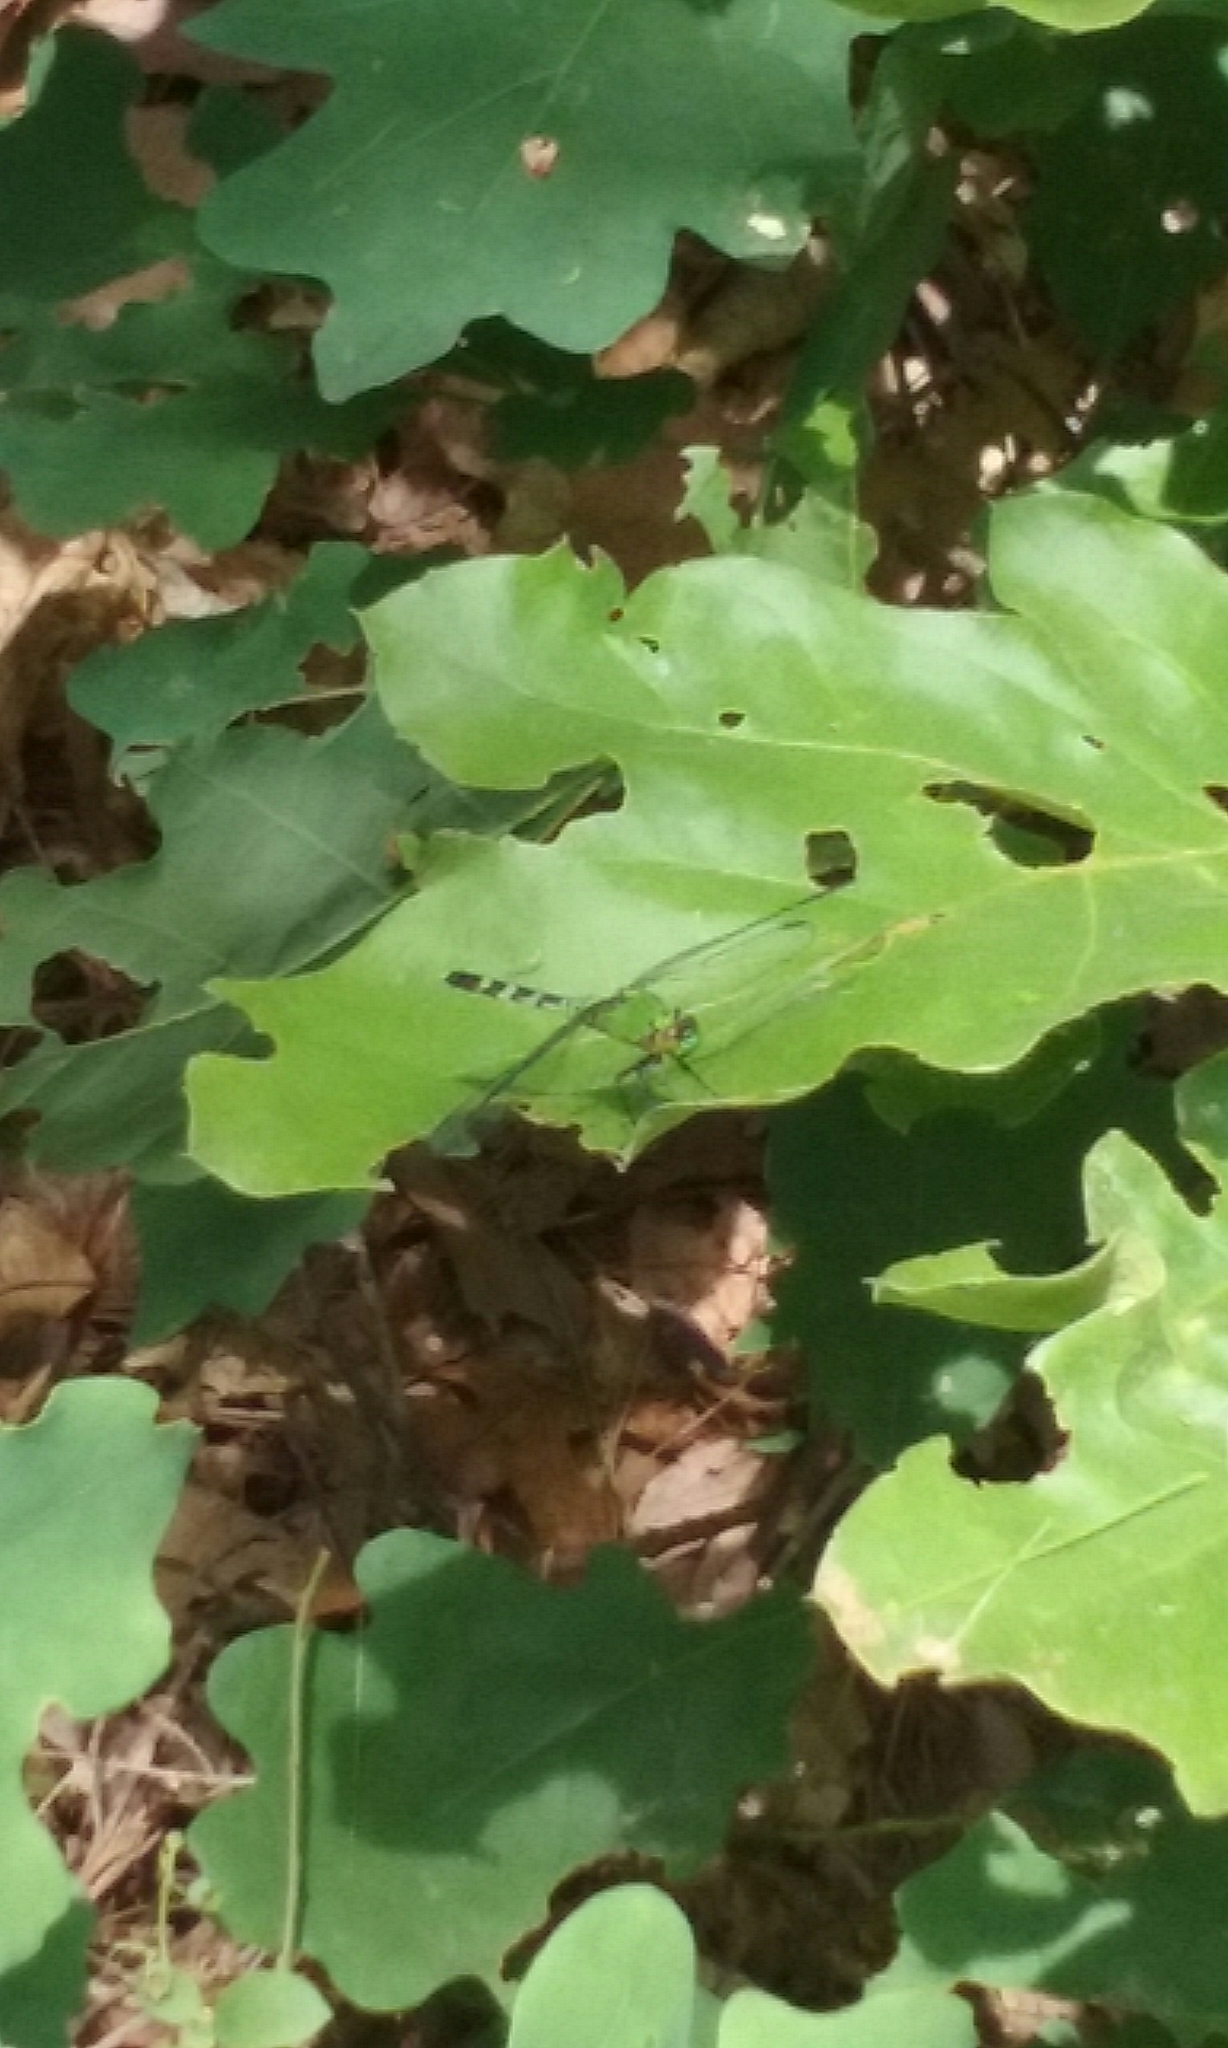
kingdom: Animalia
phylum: Arthropoda
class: Insecta
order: Odonata
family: Libellulidae
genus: Erythemis
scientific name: Erythemis simplicicollis
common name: Eastern pondhawk
